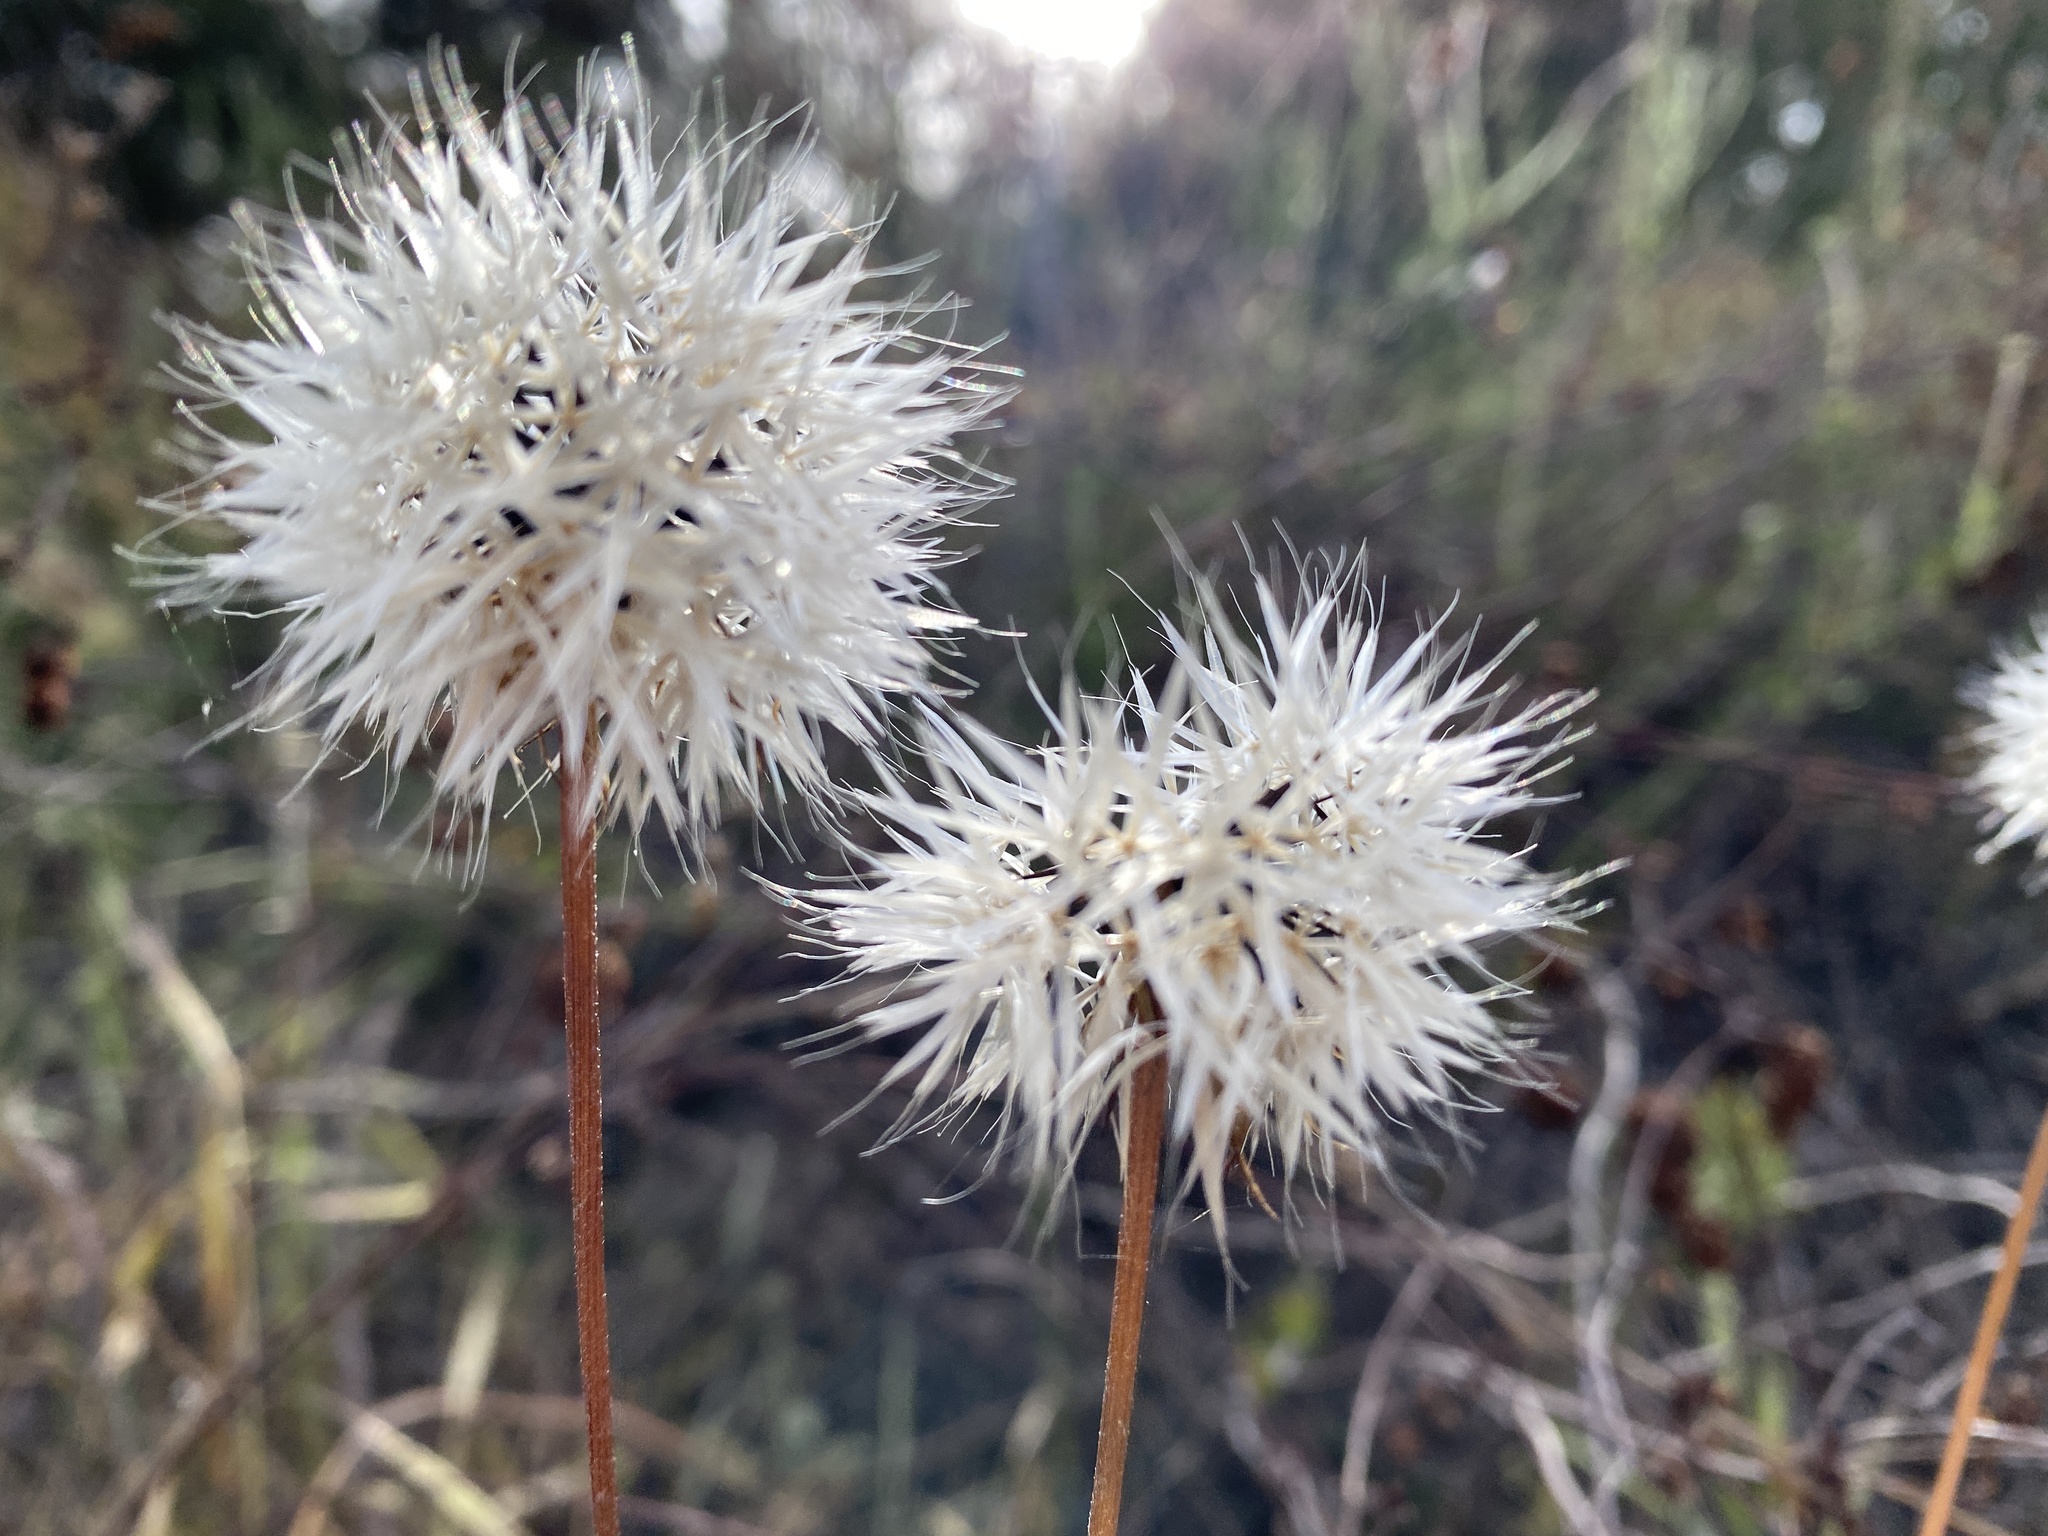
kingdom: Plantae
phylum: Tracheophyta
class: Magnoliopsida
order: Asterales
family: Asteraceae
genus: Microseris
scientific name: Microseris lindleyi
